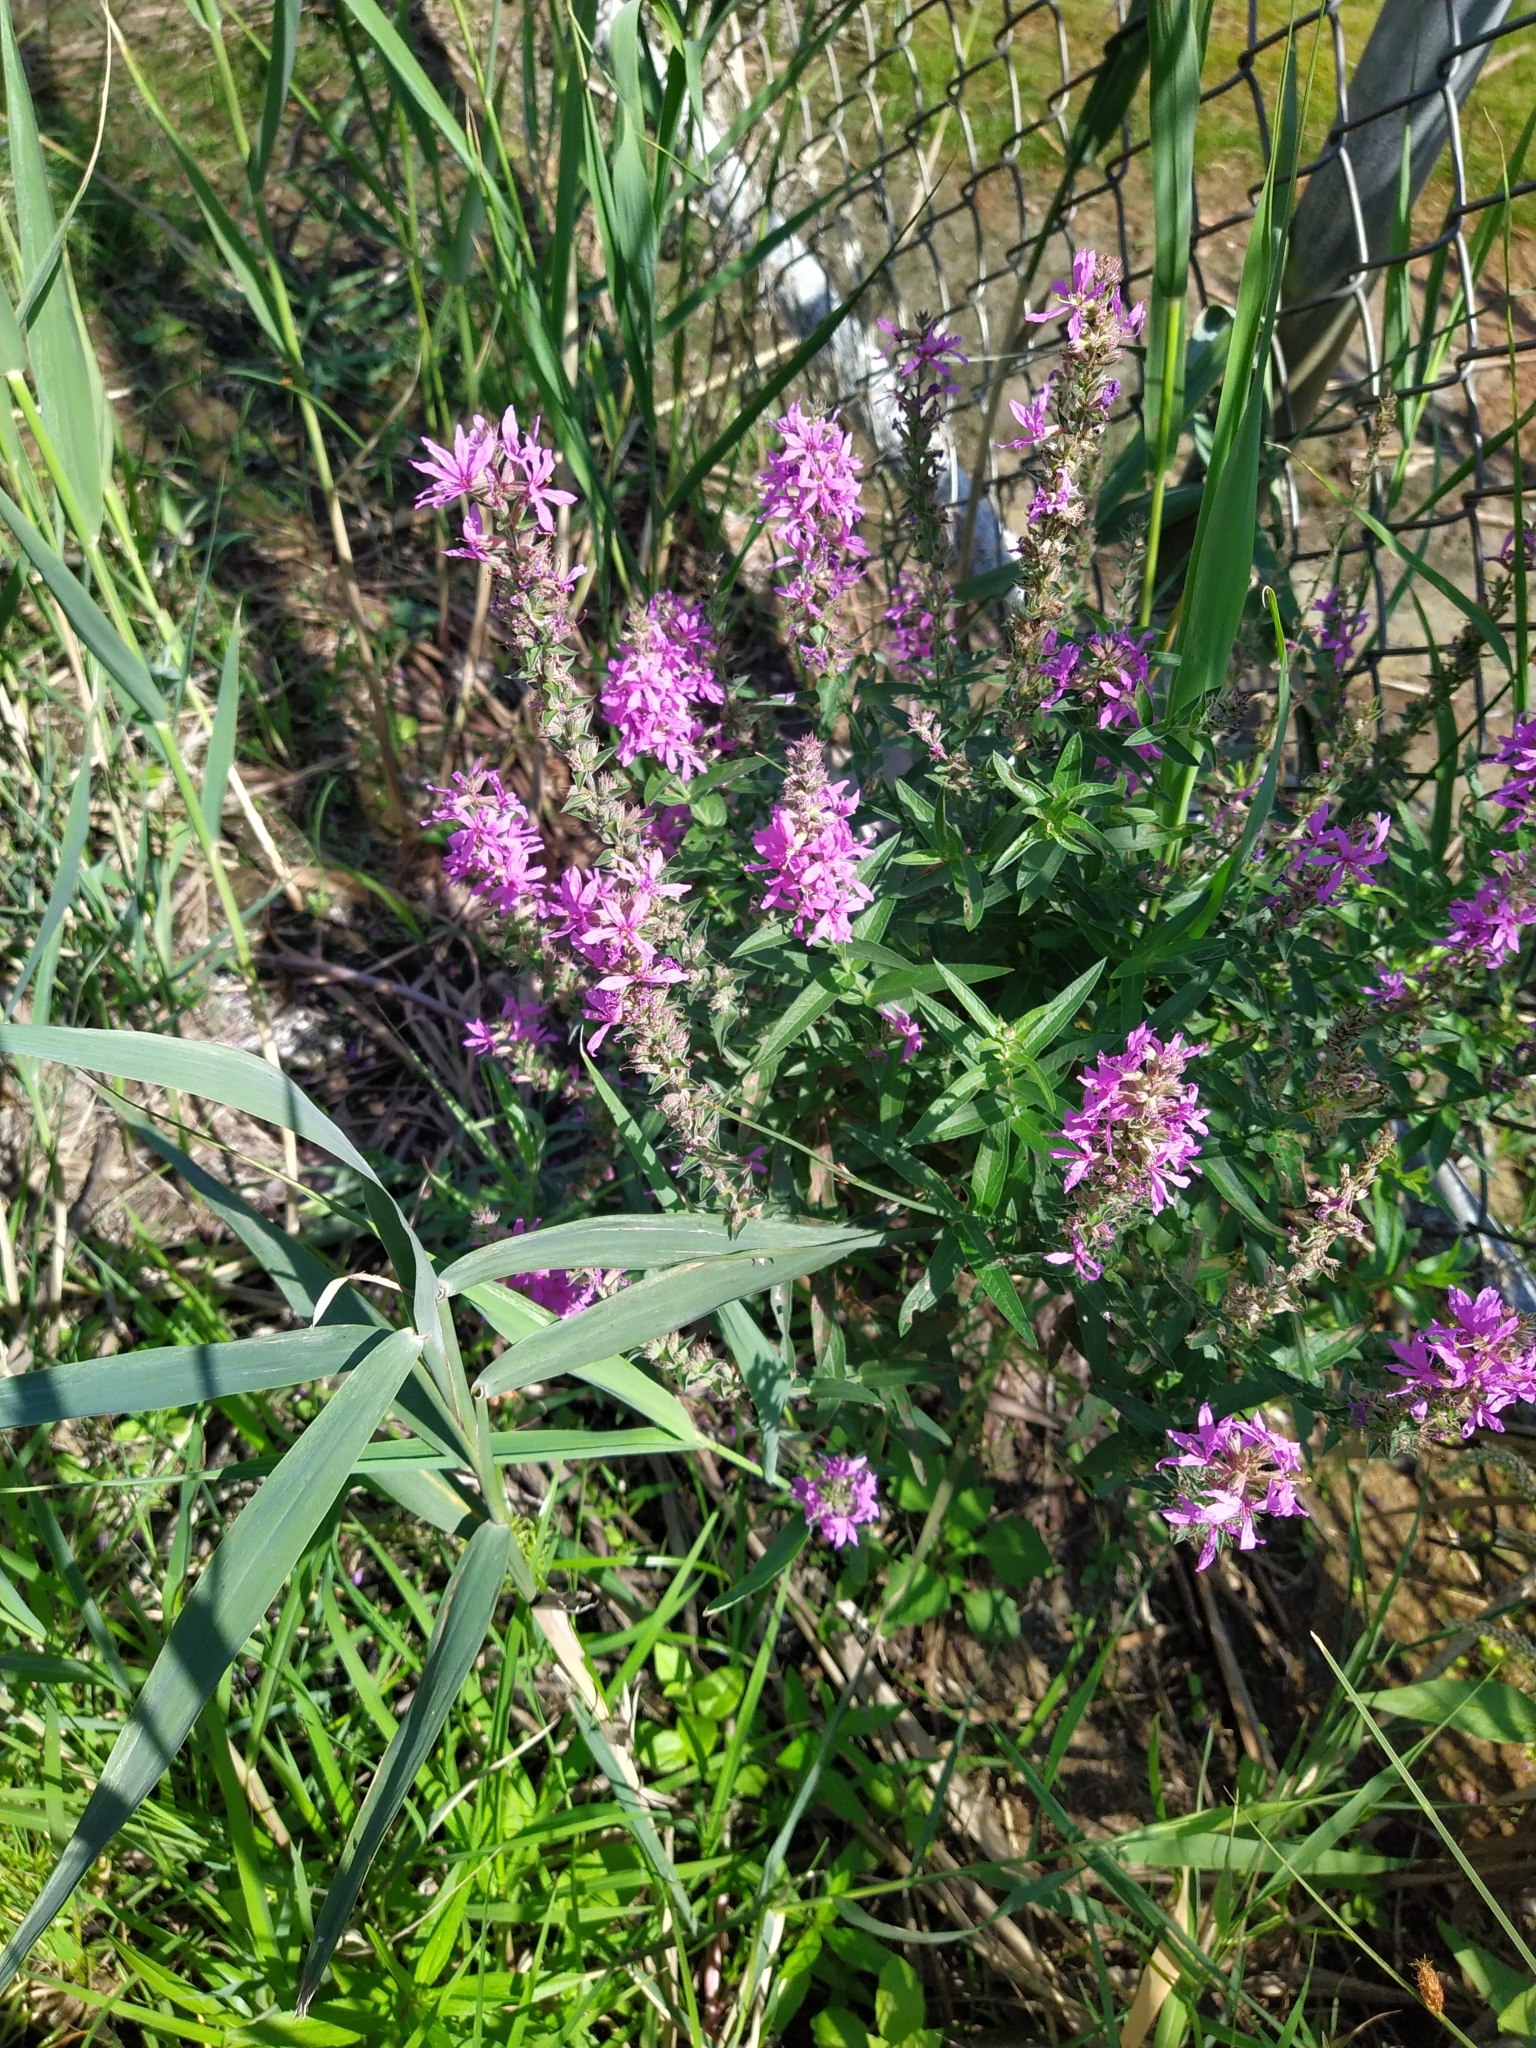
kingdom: Plantae
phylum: Tracheophyta
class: Magnoliopsida
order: Myrtales
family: Lythraceae
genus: Lythrum
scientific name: Lythrum salicaria
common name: Purple loosestrife
